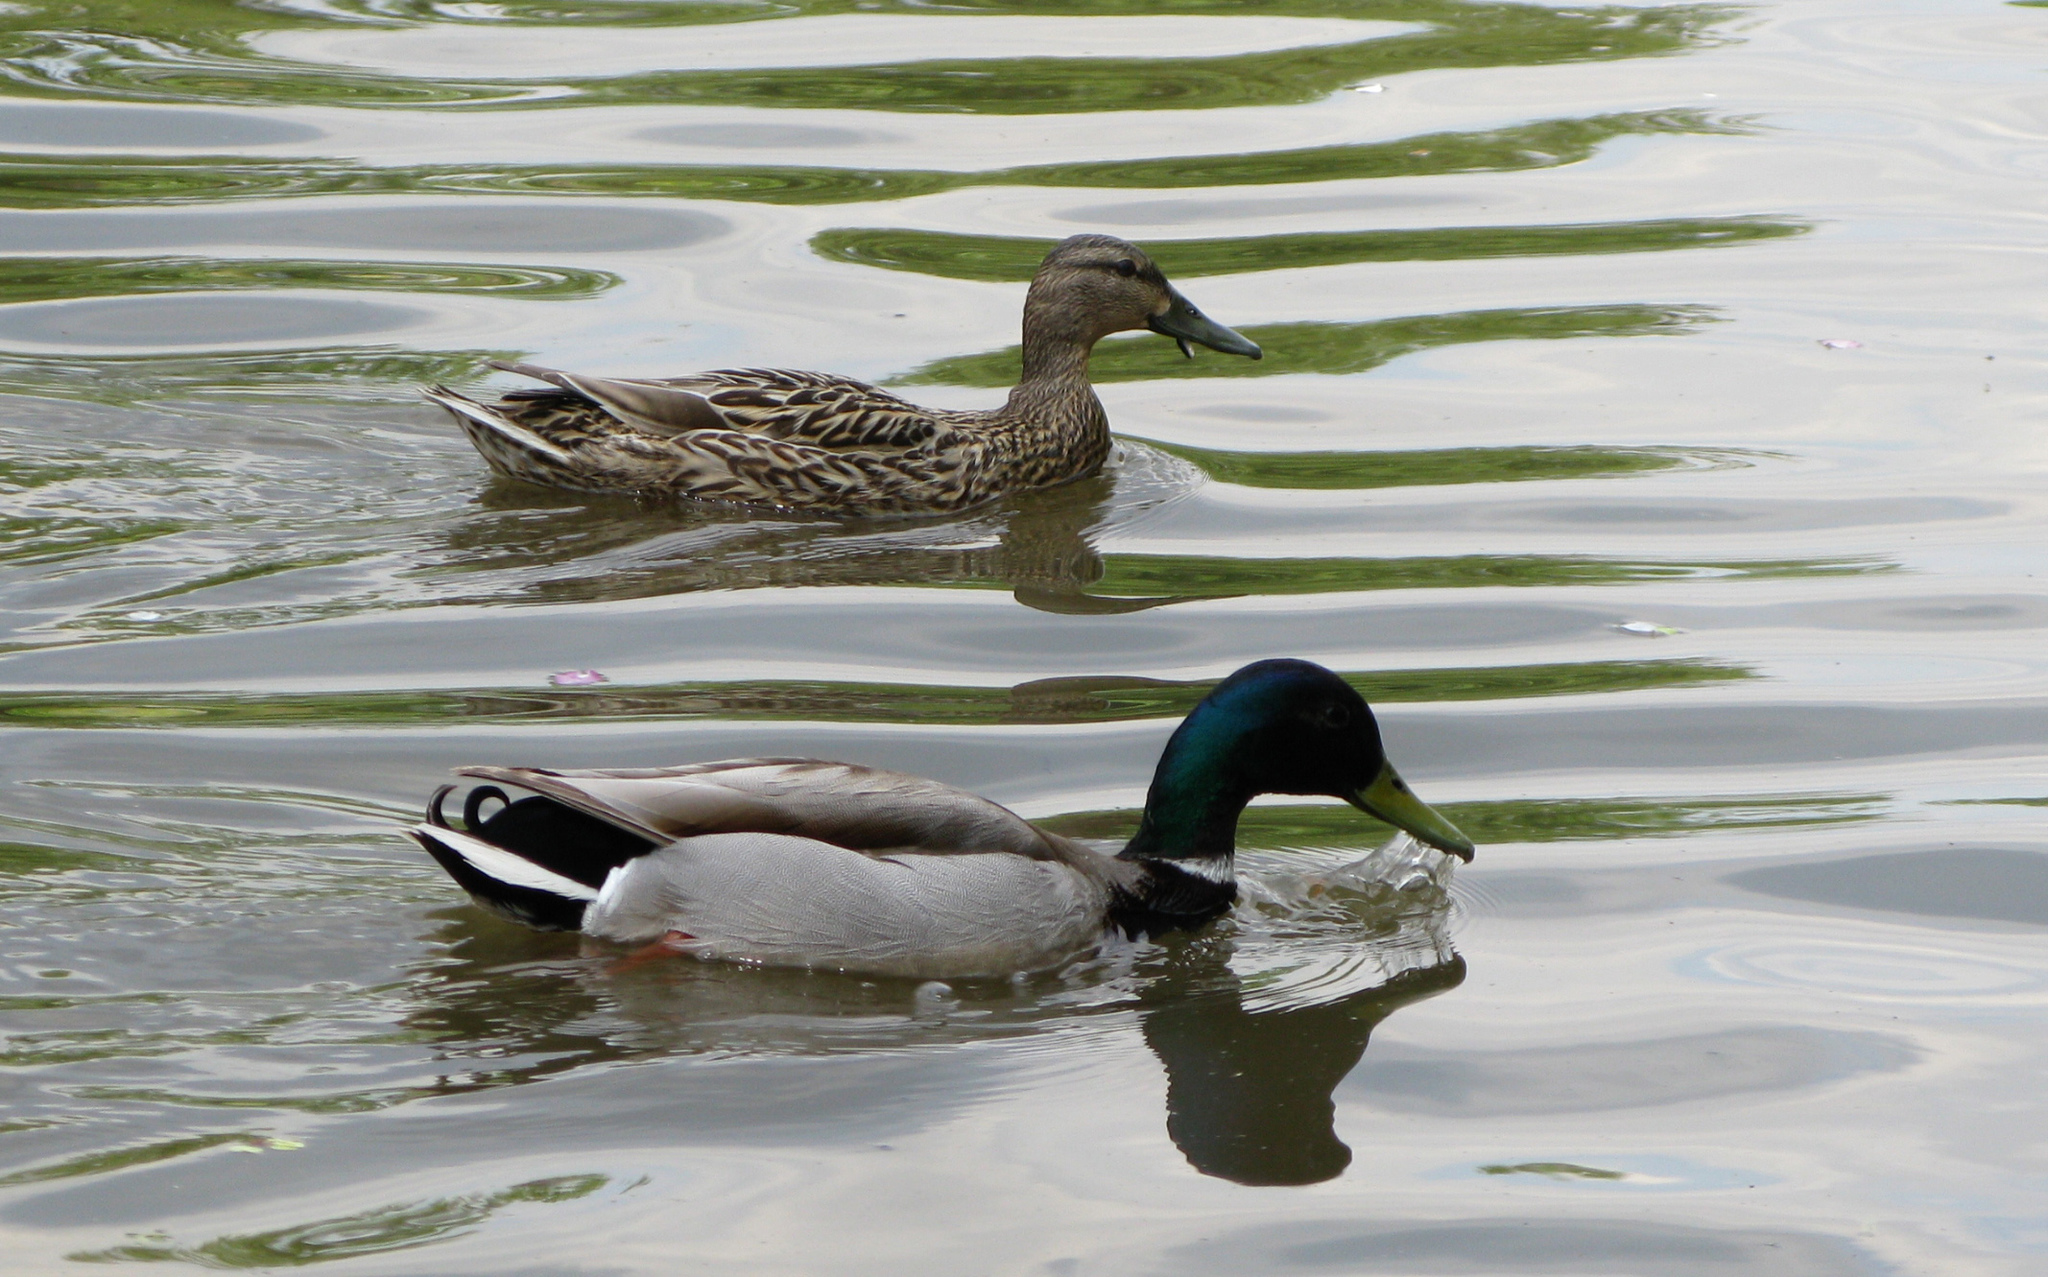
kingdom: Animalia
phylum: Chordata
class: Aves
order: Anseriformes
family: Anatidae
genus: Anas
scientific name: Anas platyrhynchos
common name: Mallard
